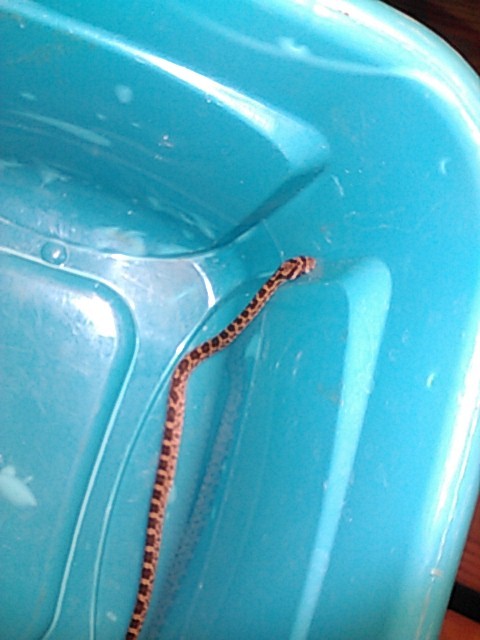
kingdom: Animalia
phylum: Chordata
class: Squamata
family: Colubridae
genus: Pantherophis
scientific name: Pantherophis obsoletus
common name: Black rat snake
